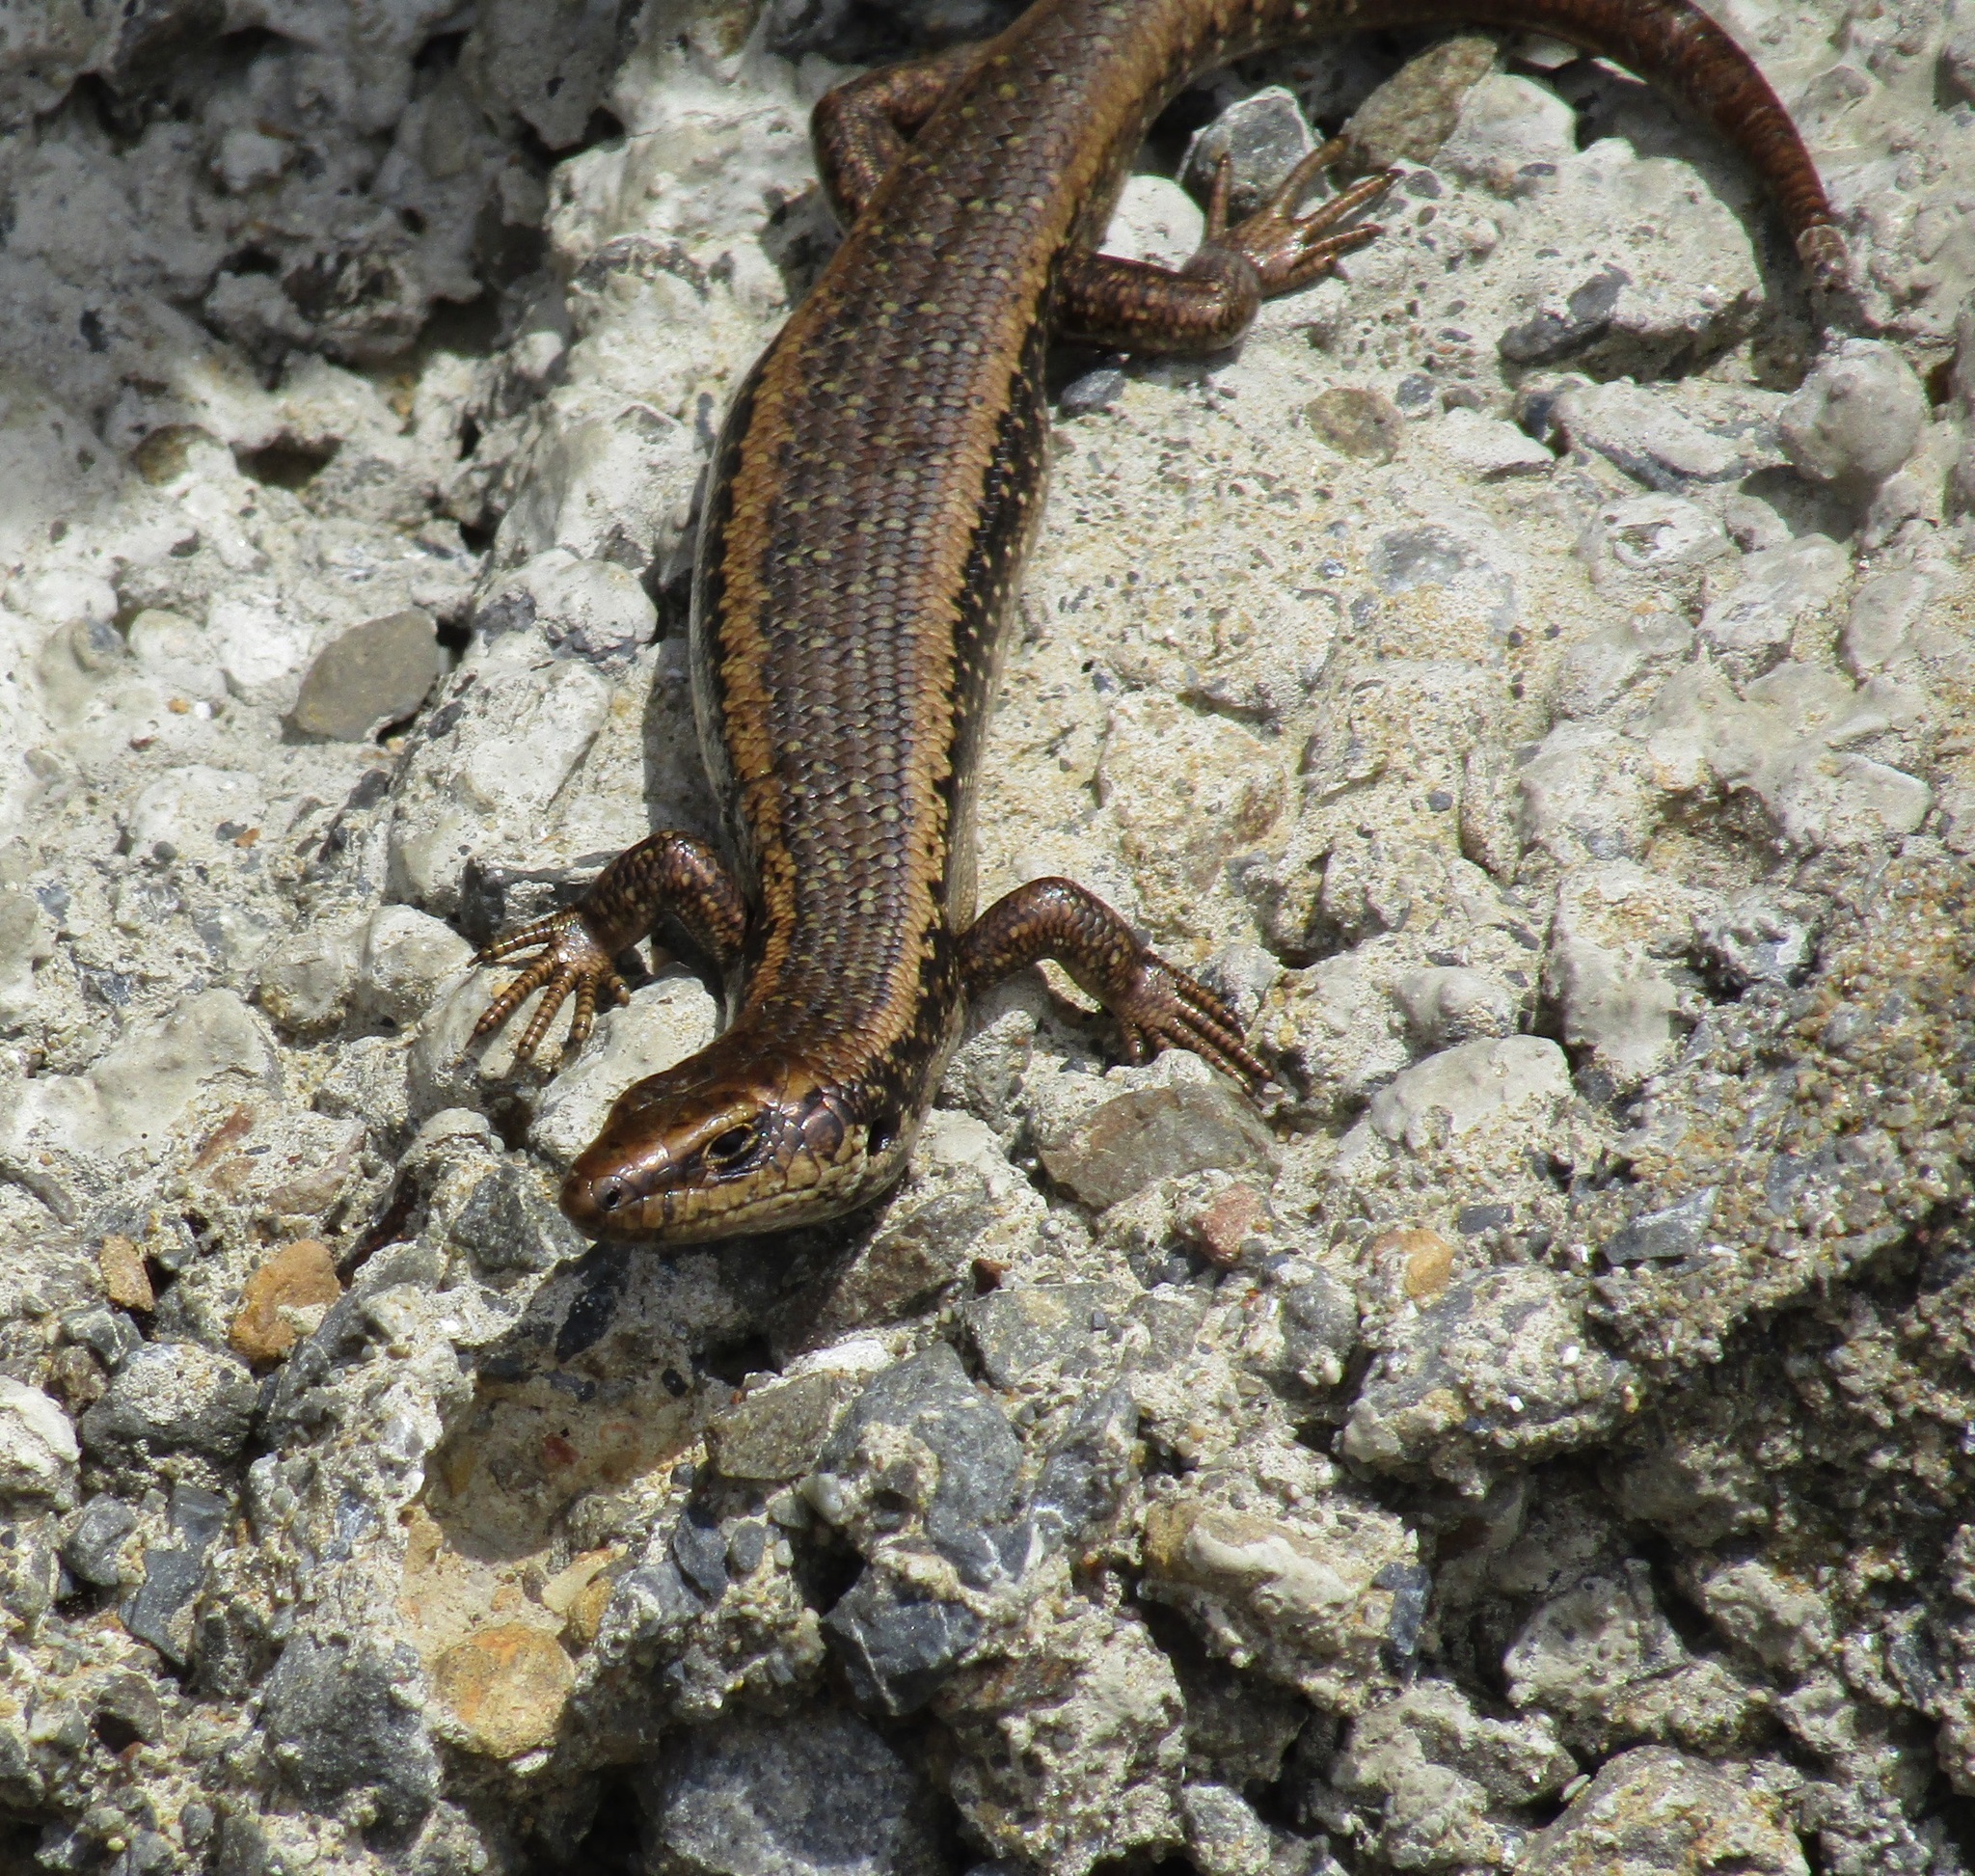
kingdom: Animalia
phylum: Chordata
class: Squamata
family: Scincidae
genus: Oligosoma
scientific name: Oligosoma kokowai
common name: Northern spotted skink
